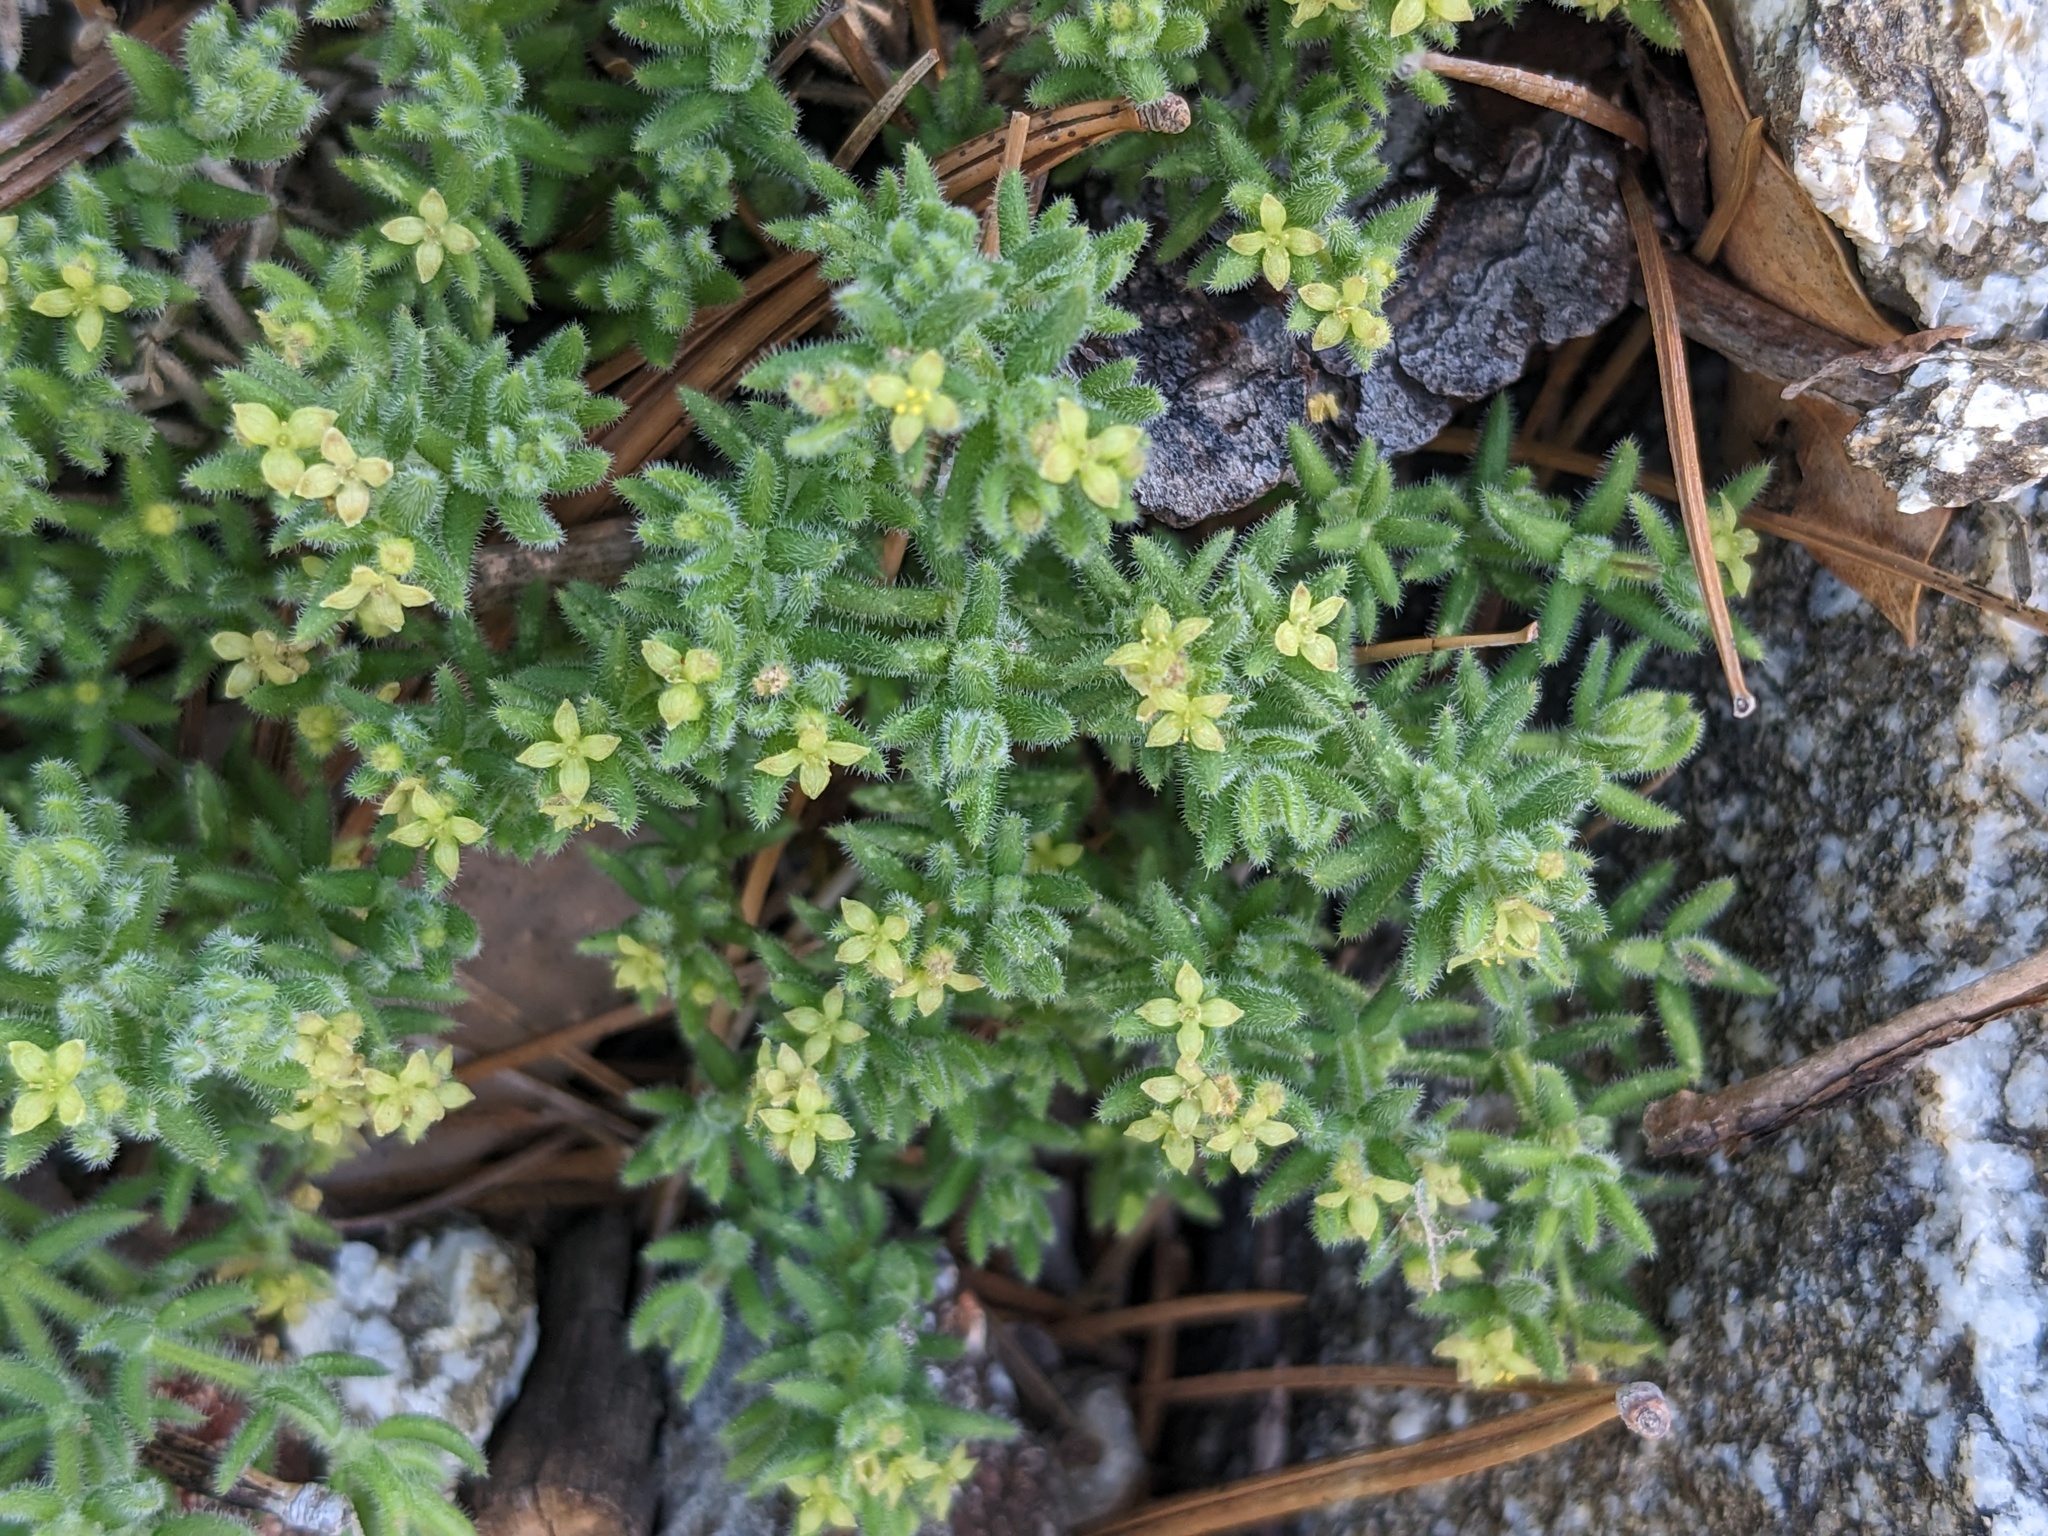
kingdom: Plantae
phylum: Tracheophyta
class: Magnoliopsida
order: Gentianales
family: Rubiaceae
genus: Galium
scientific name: Galium clementis
